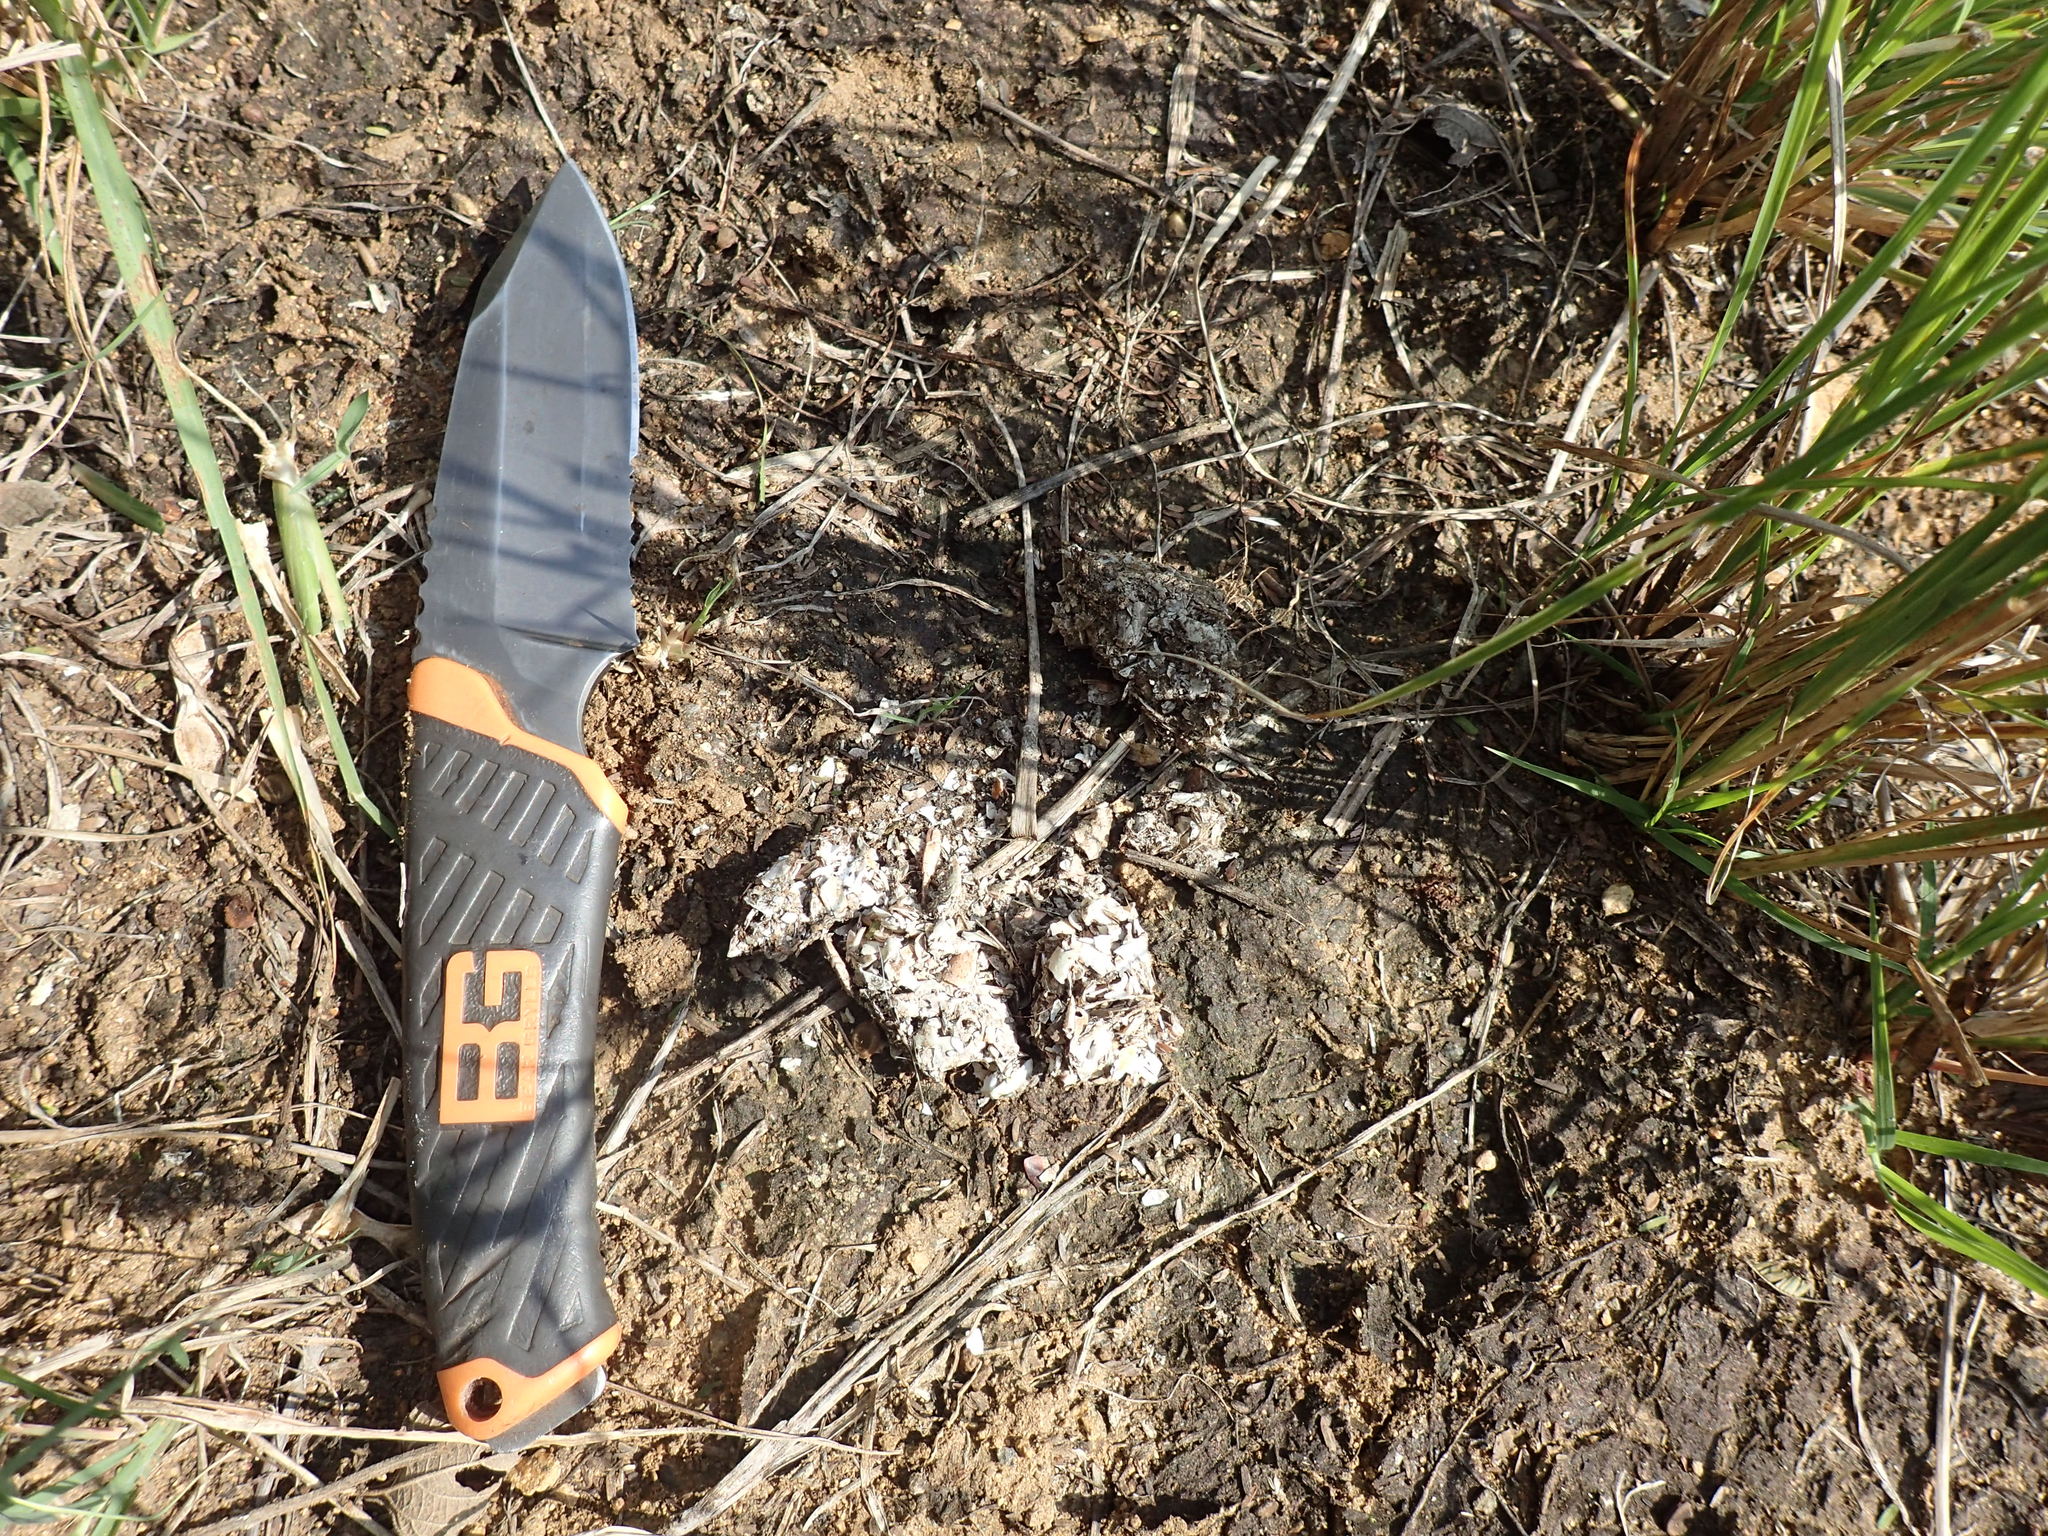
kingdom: Animalia
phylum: Chordata
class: Mammalia
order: Carnivora
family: Herpestidae
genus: Atilax
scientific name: Atilax paludinosus
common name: Marsh mongoose
